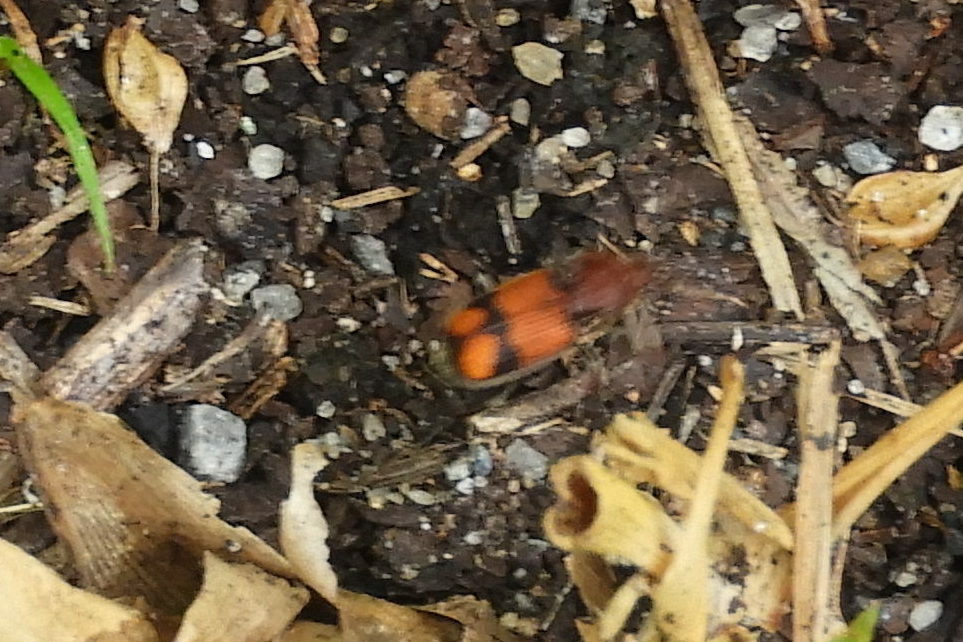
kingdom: Animalia
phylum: Arthropoda
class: Insecta
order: Coleoptera
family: Carabidae
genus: Panagaeus
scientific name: Panagaeus fasciatus
